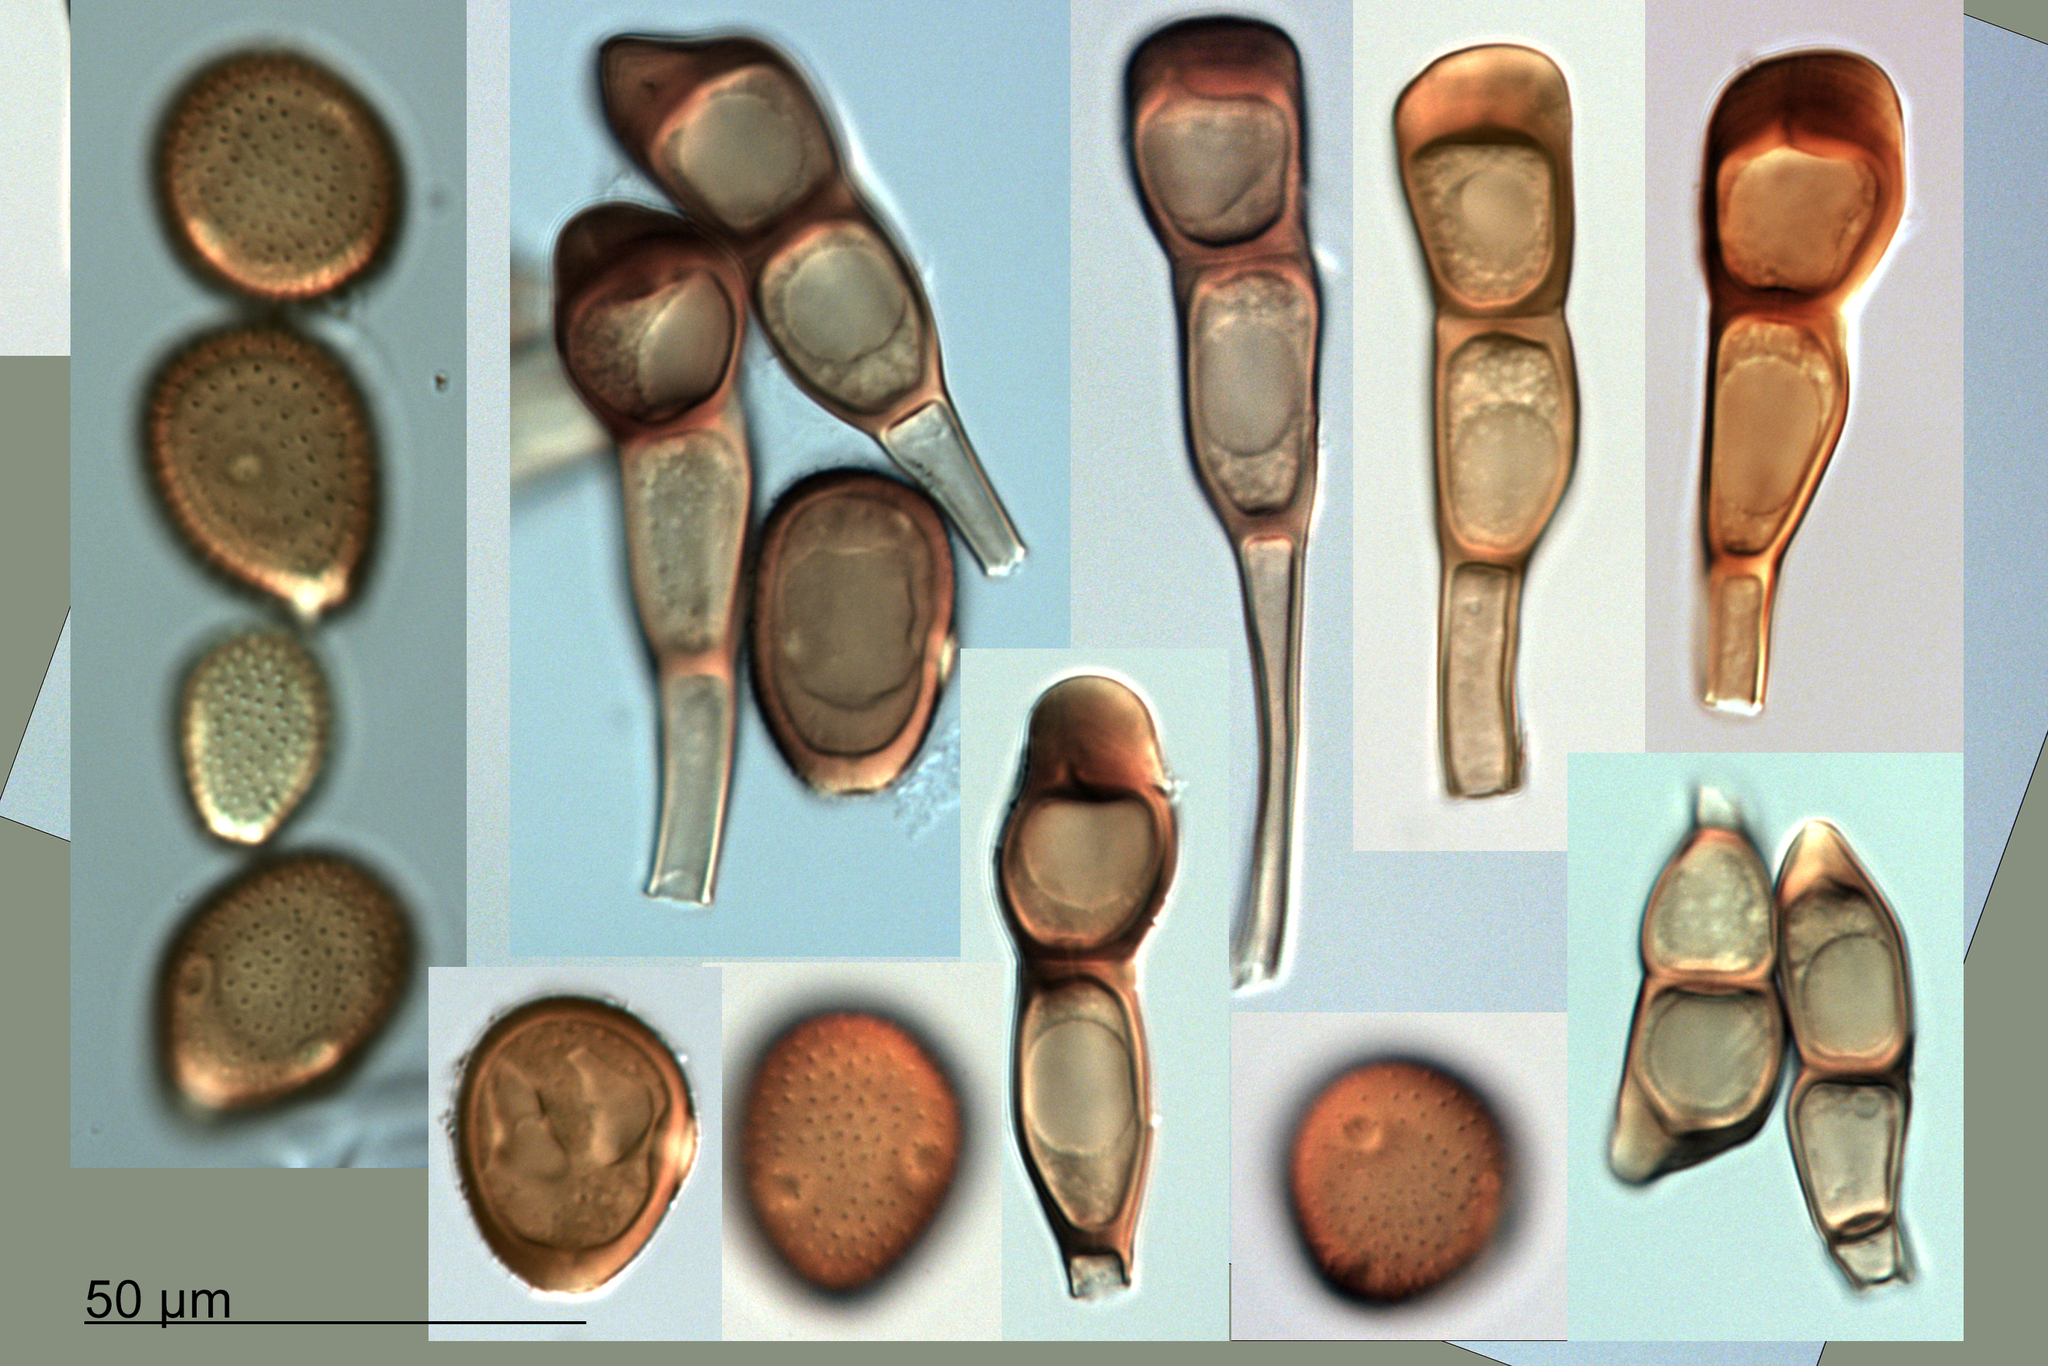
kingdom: Fungi
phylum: Basidiomycota
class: Pucciniomycetes
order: Pucciniales
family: Pucciniaceae
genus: Puccinia
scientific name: Puccinia iridis
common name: Iris rust
